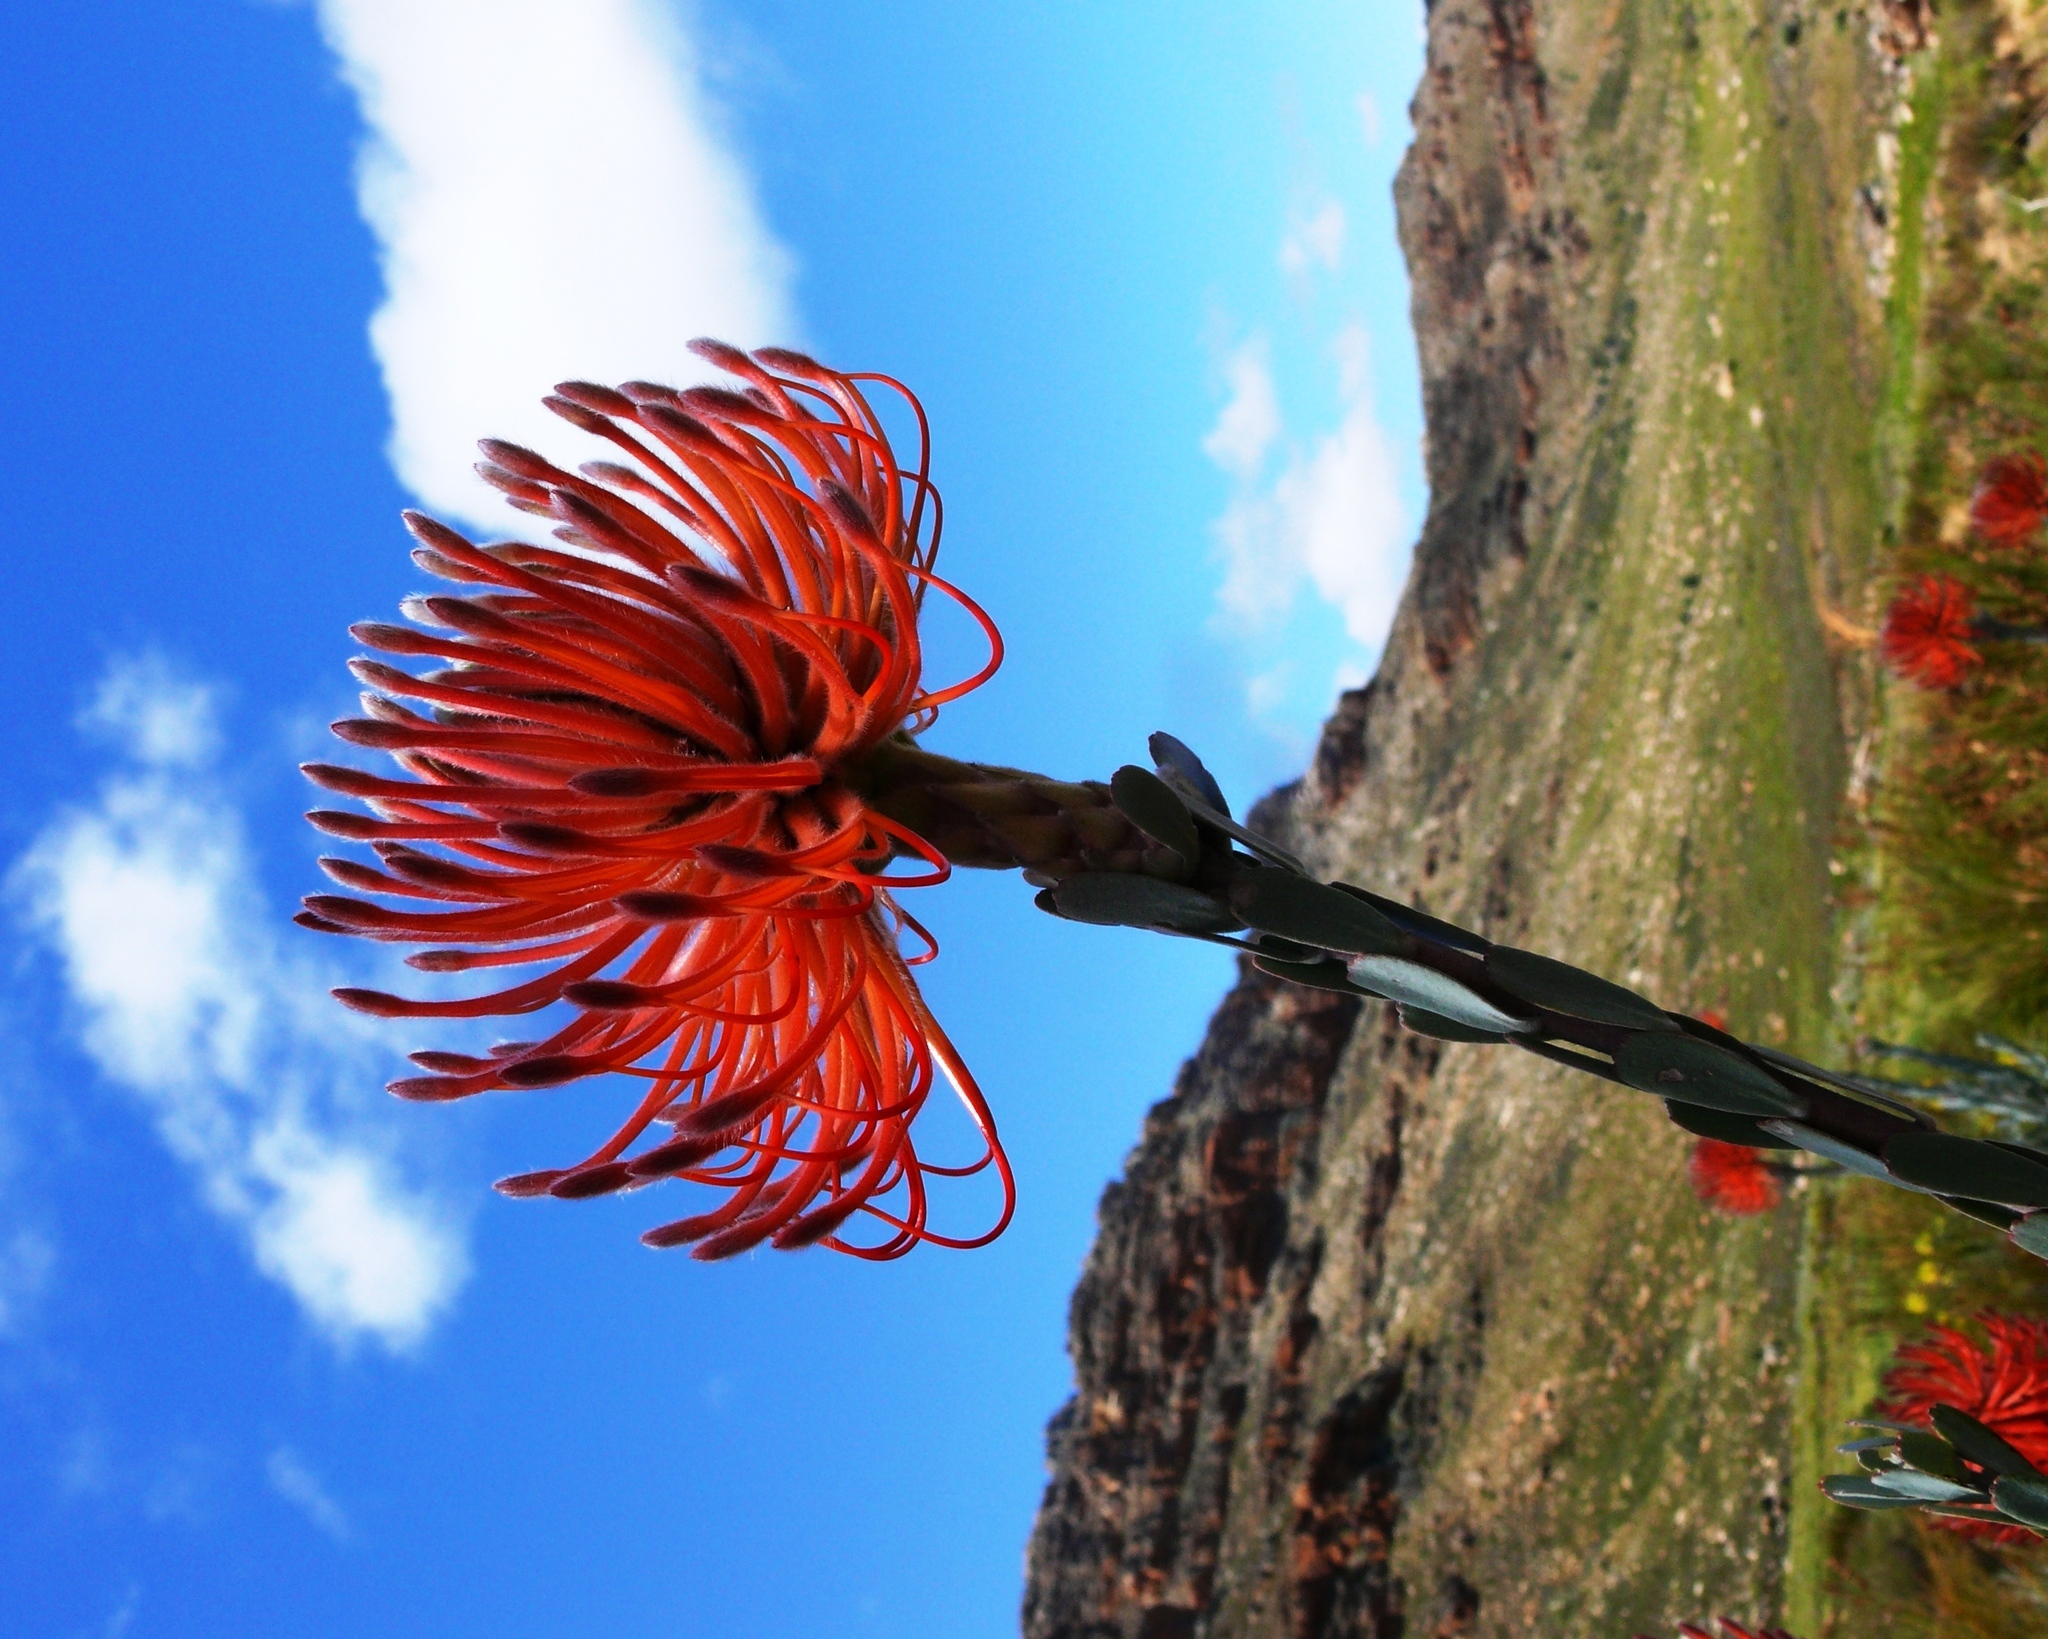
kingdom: Plantae
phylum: Tracheophyta
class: Magnoliopsida
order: Proteales
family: Proteaceae
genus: Leucospermum
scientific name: Leucospermum reflexum
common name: Rocket pincushion
